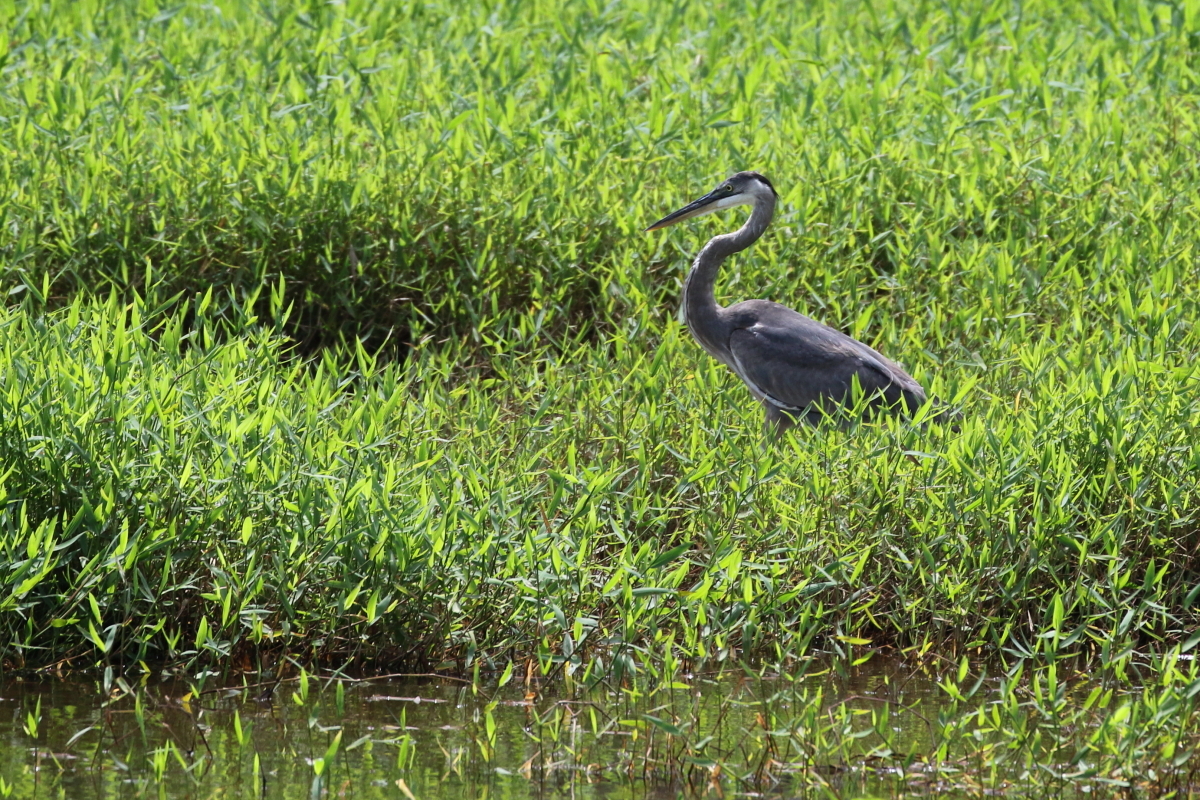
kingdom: Animalia
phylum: Chordata
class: Aves
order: Pelecaniformes
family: Ardeidae
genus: Ardea
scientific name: Ardea herodias
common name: Great blue heron
